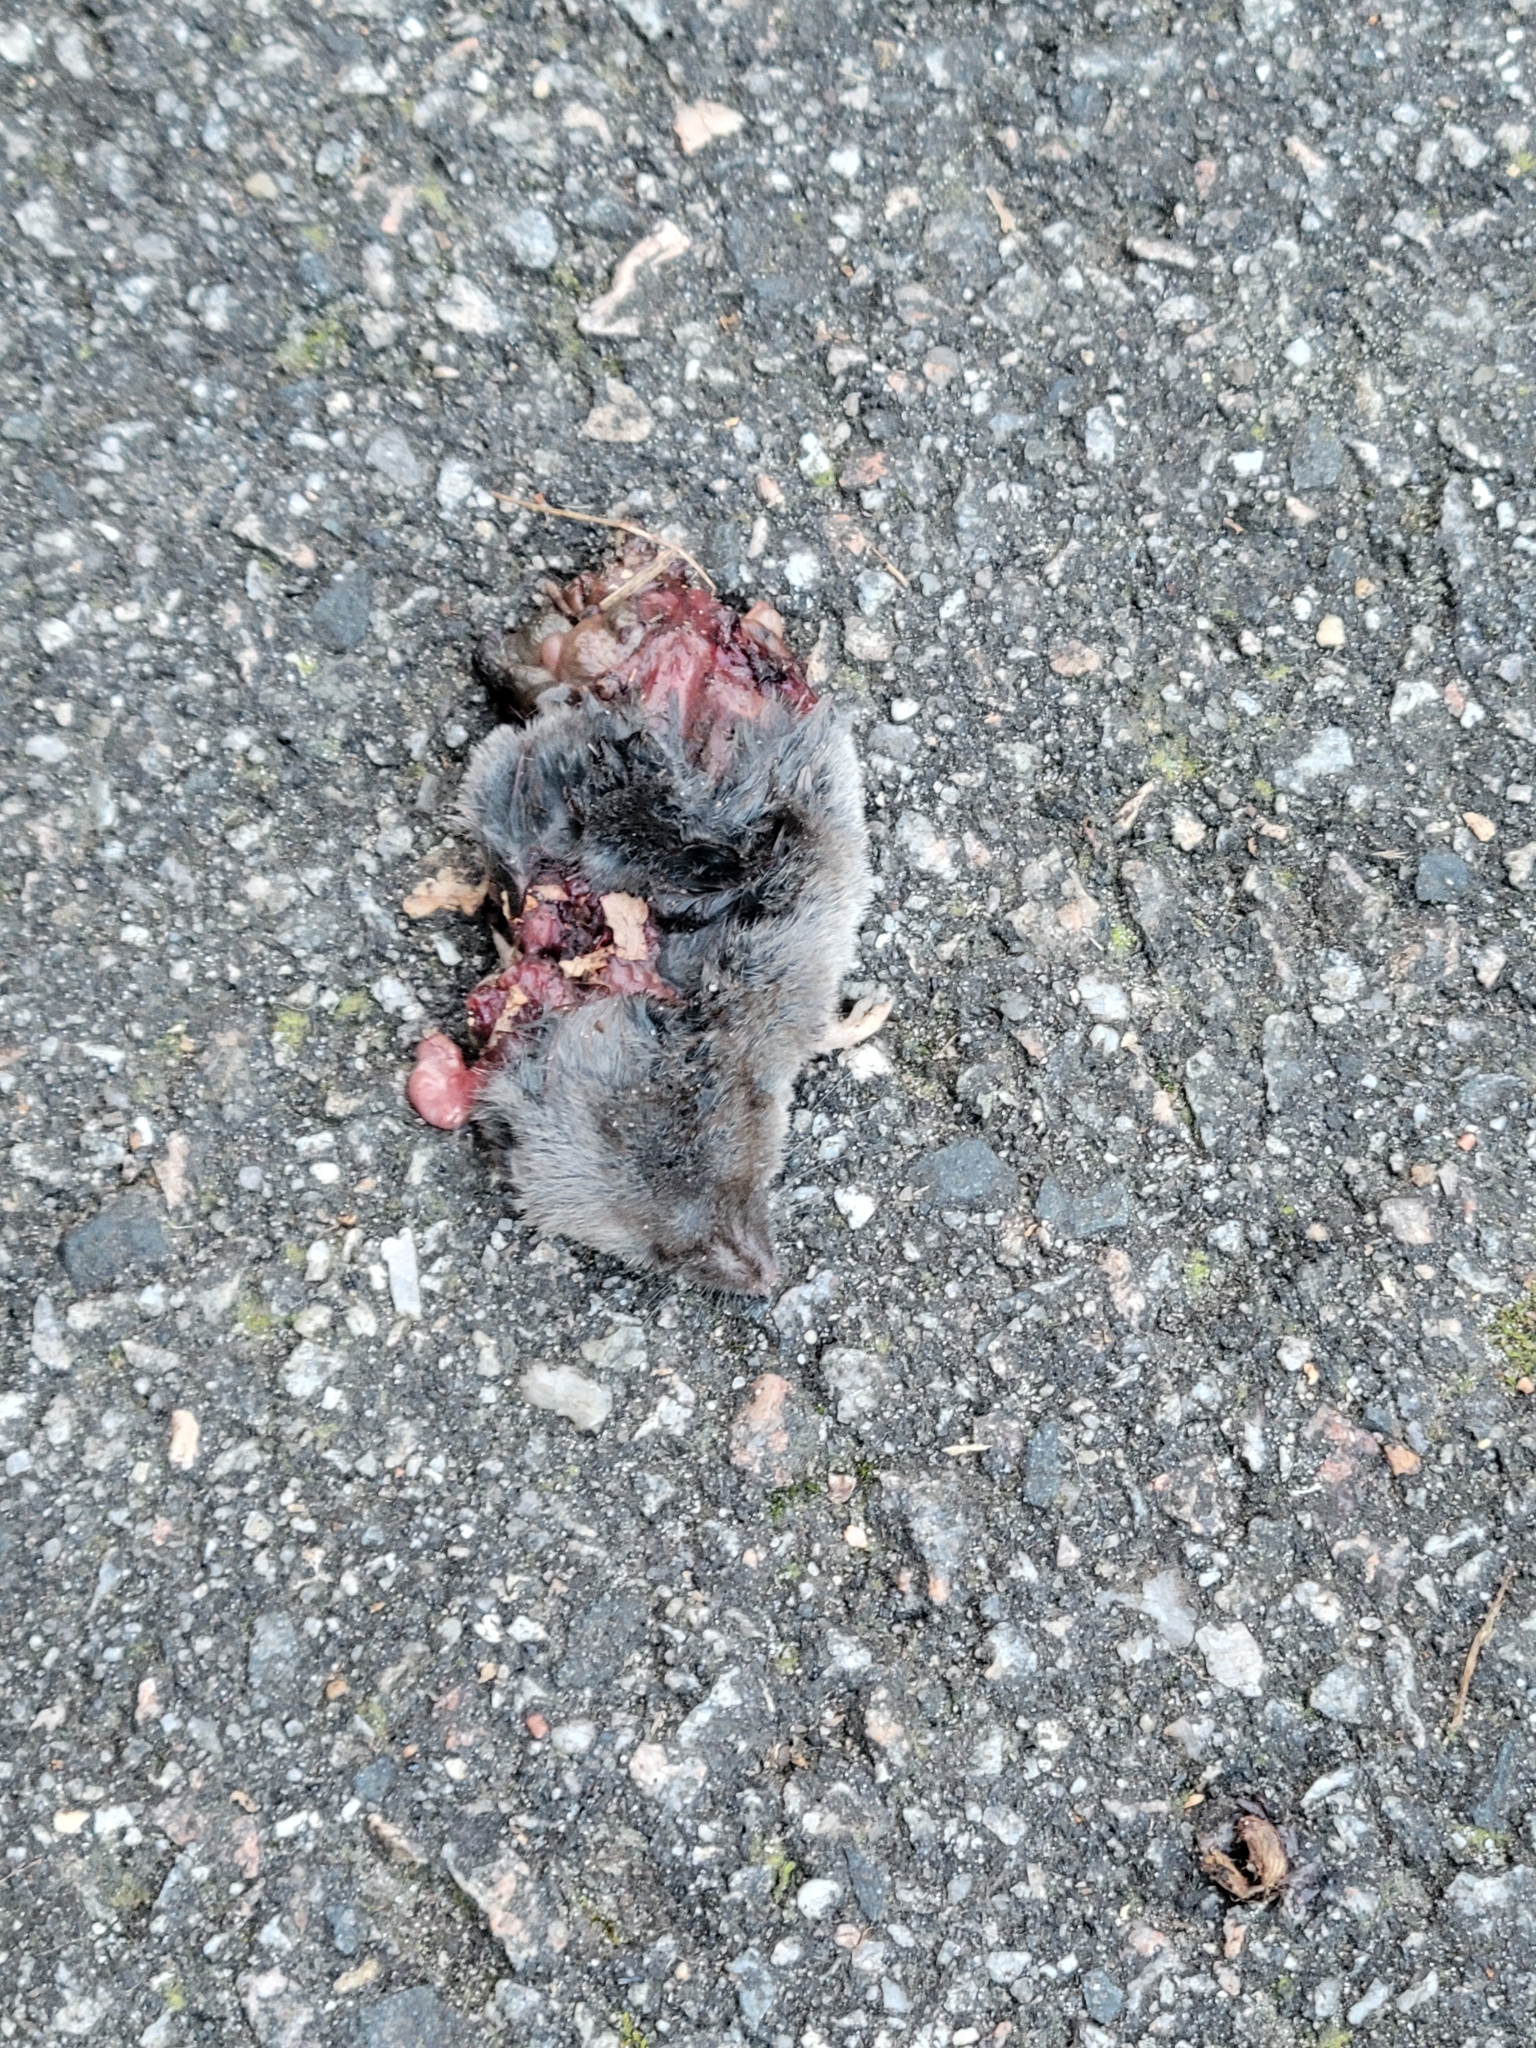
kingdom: Animalia
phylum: Chordata
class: Mammalia
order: Soricomorpha
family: Soricidae
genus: Blarina
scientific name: Blarina brevicauda
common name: Northern short-tailed shrew
